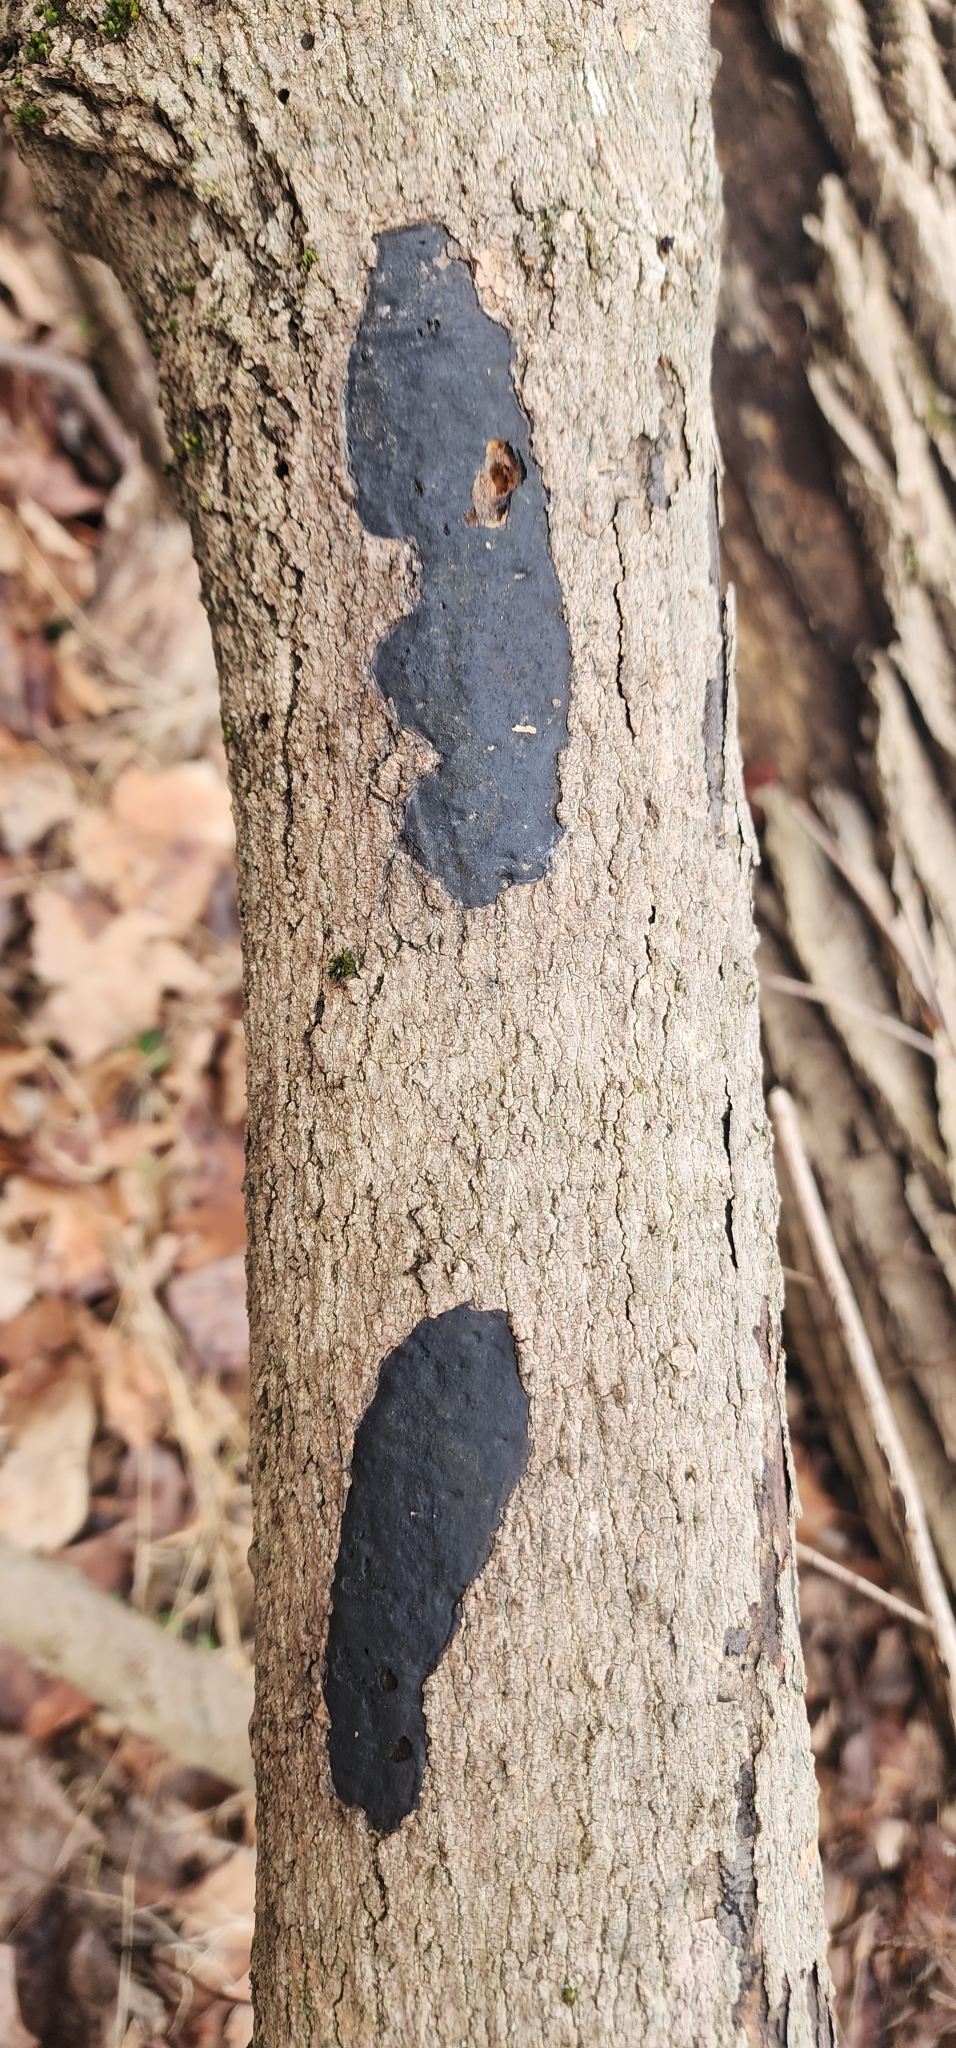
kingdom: Fungi
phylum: Ascomycota
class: Sordariomycetes
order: Xylariales
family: Diatrypaceae
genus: Diatrype
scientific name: Diatrype stigma
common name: Common tarcrust
